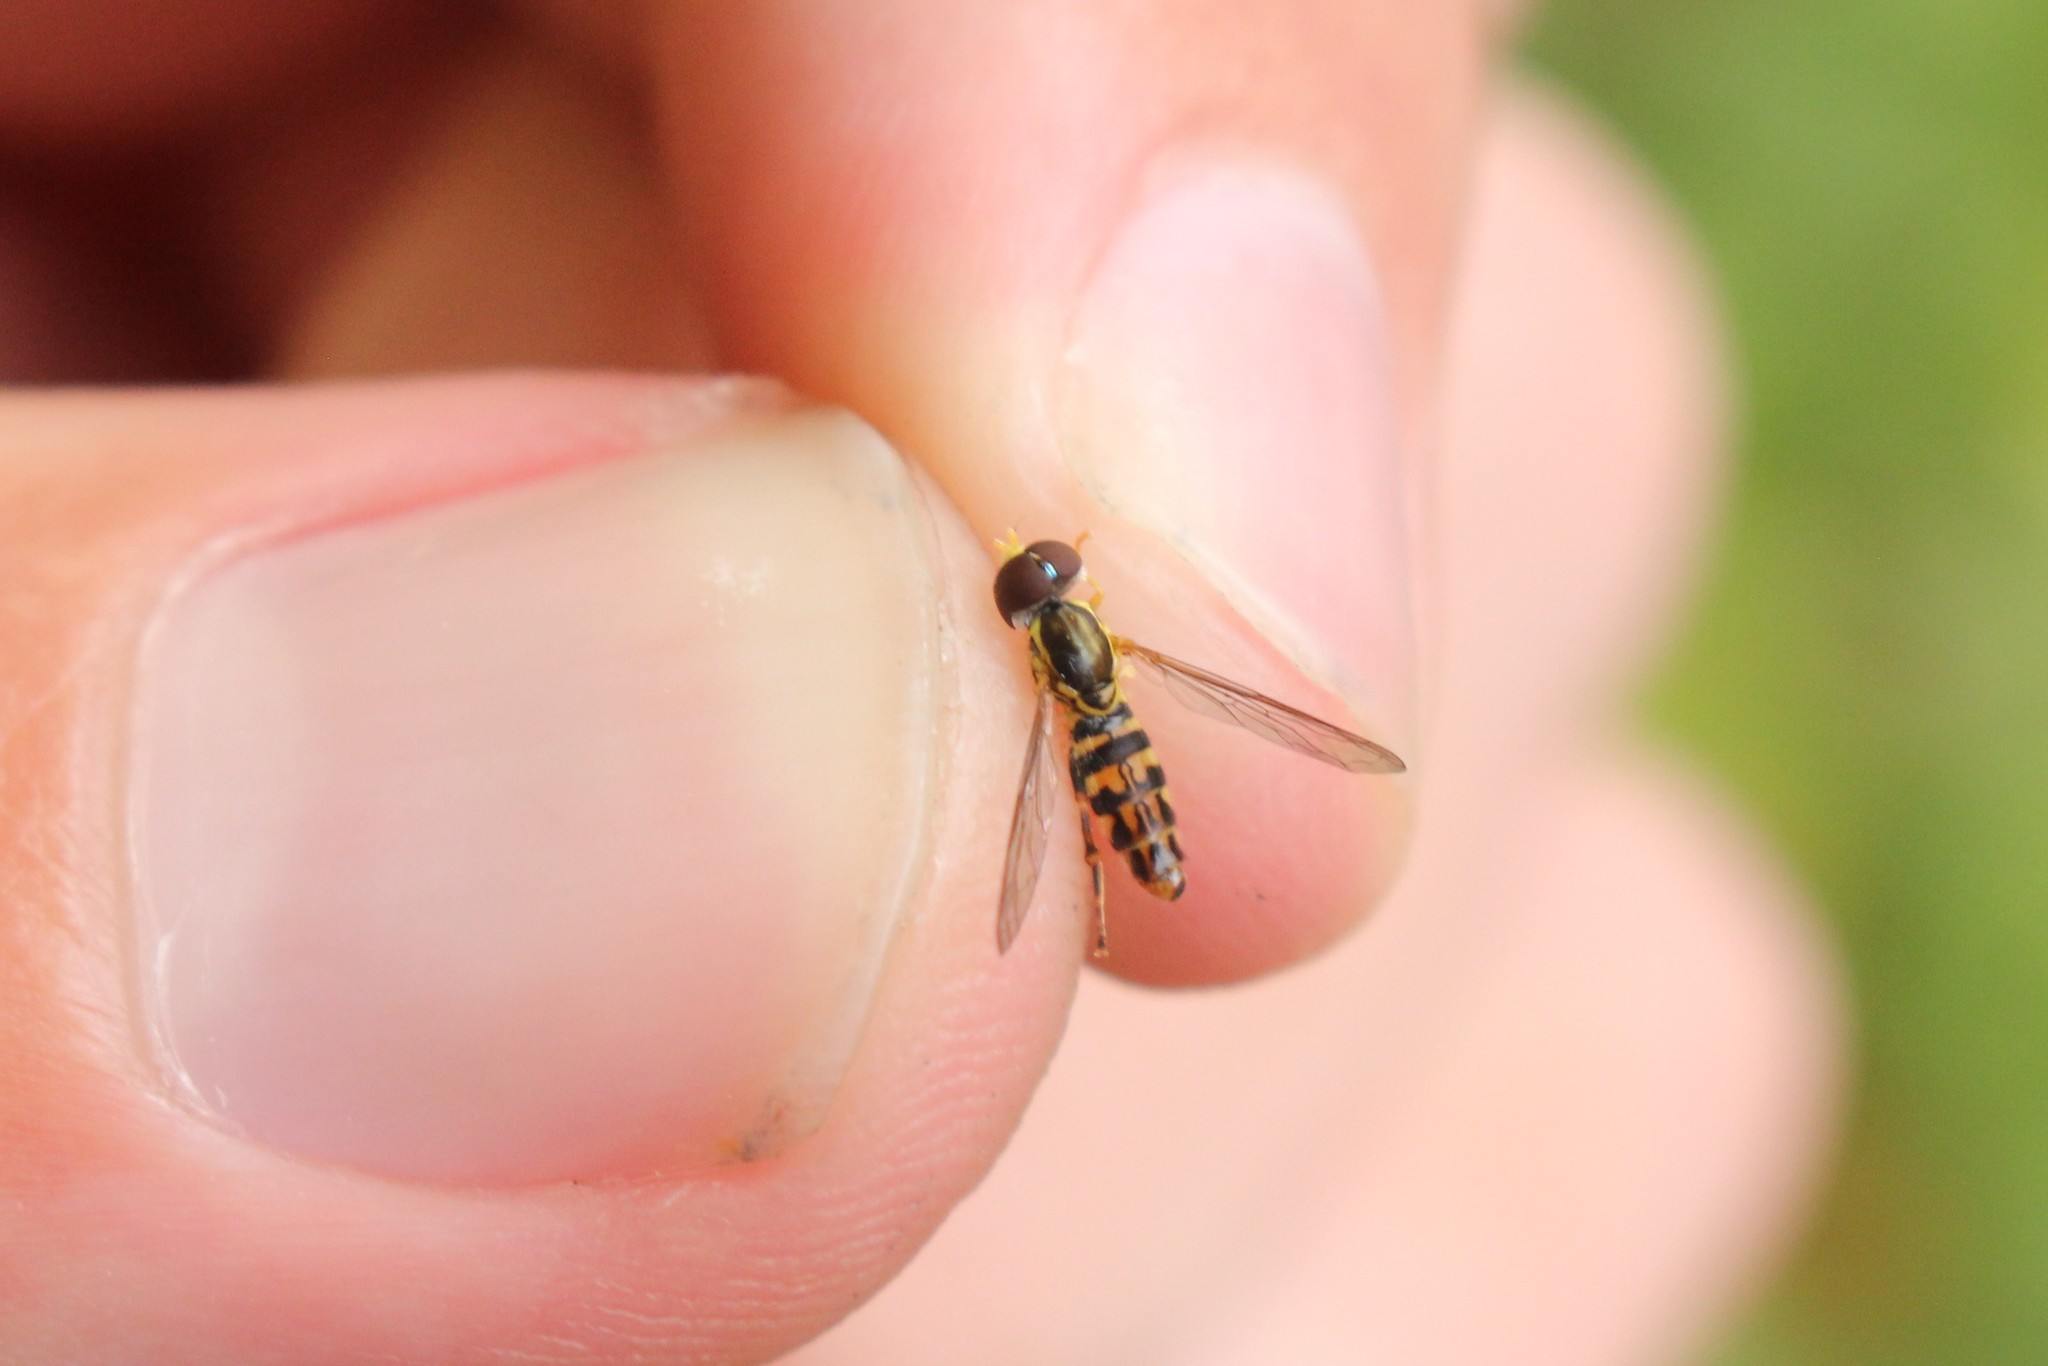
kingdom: Animalia
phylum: Arthropoda
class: Insecta
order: Diptera
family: Syrphidae
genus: Toxomerus
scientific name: Toxomerus geminatus
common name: Eastern calligrapher
